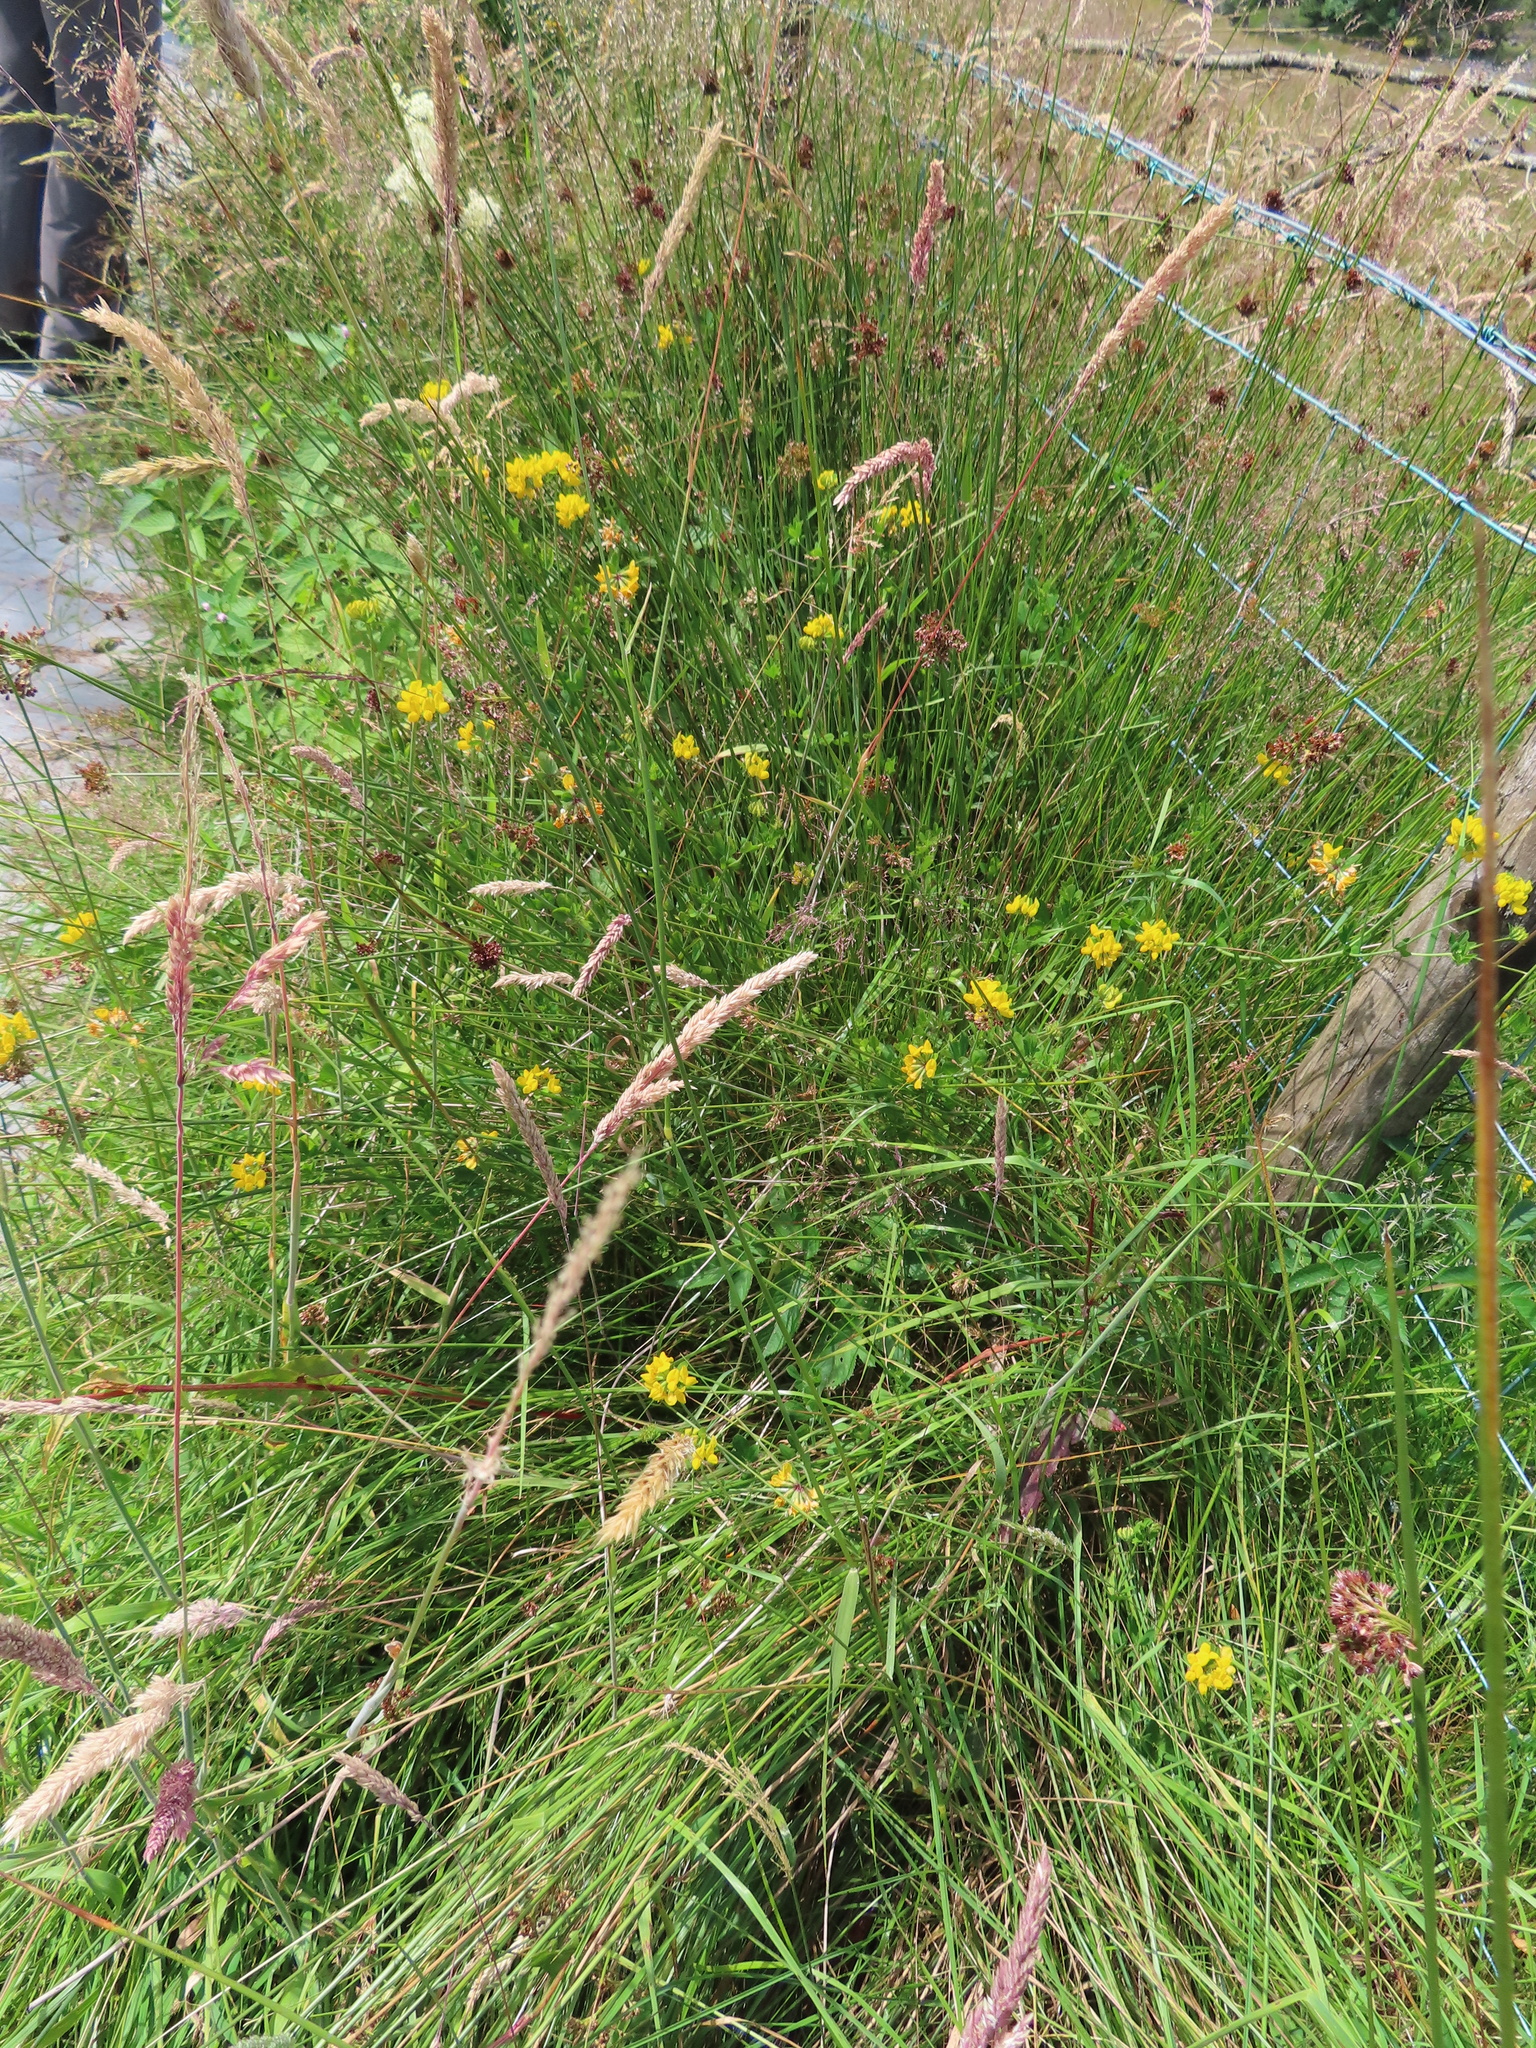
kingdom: Plantae
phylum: Tracheophyta
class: Magnoliopsida
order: Fabales
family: Fabaceae
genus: Lotus
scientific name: Lotus pedunculatus
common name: Greater birdsfoot-trefoil
